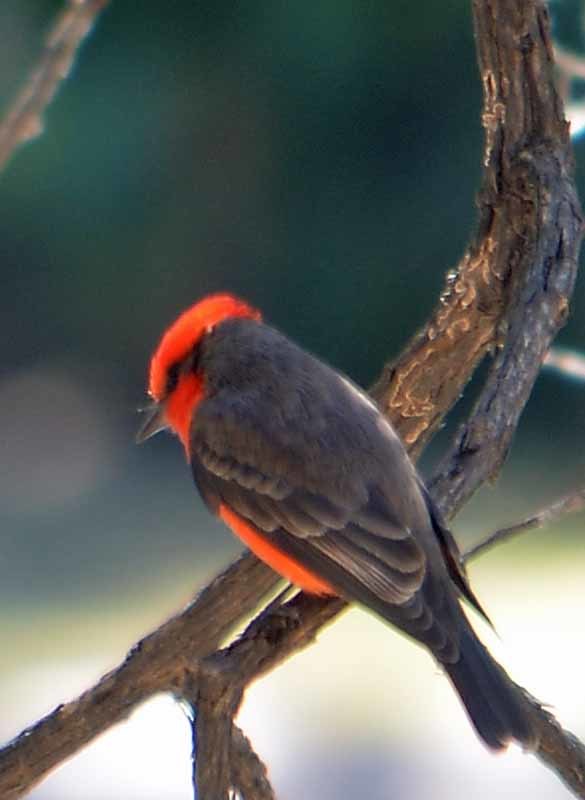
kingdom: Animalia
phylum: Chordata
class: Aves
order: Passeriformes
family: Tyrannidae
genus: Pyrocephalus
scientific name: Pyrocephalus rubinus
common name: Vermilion flycatcher
